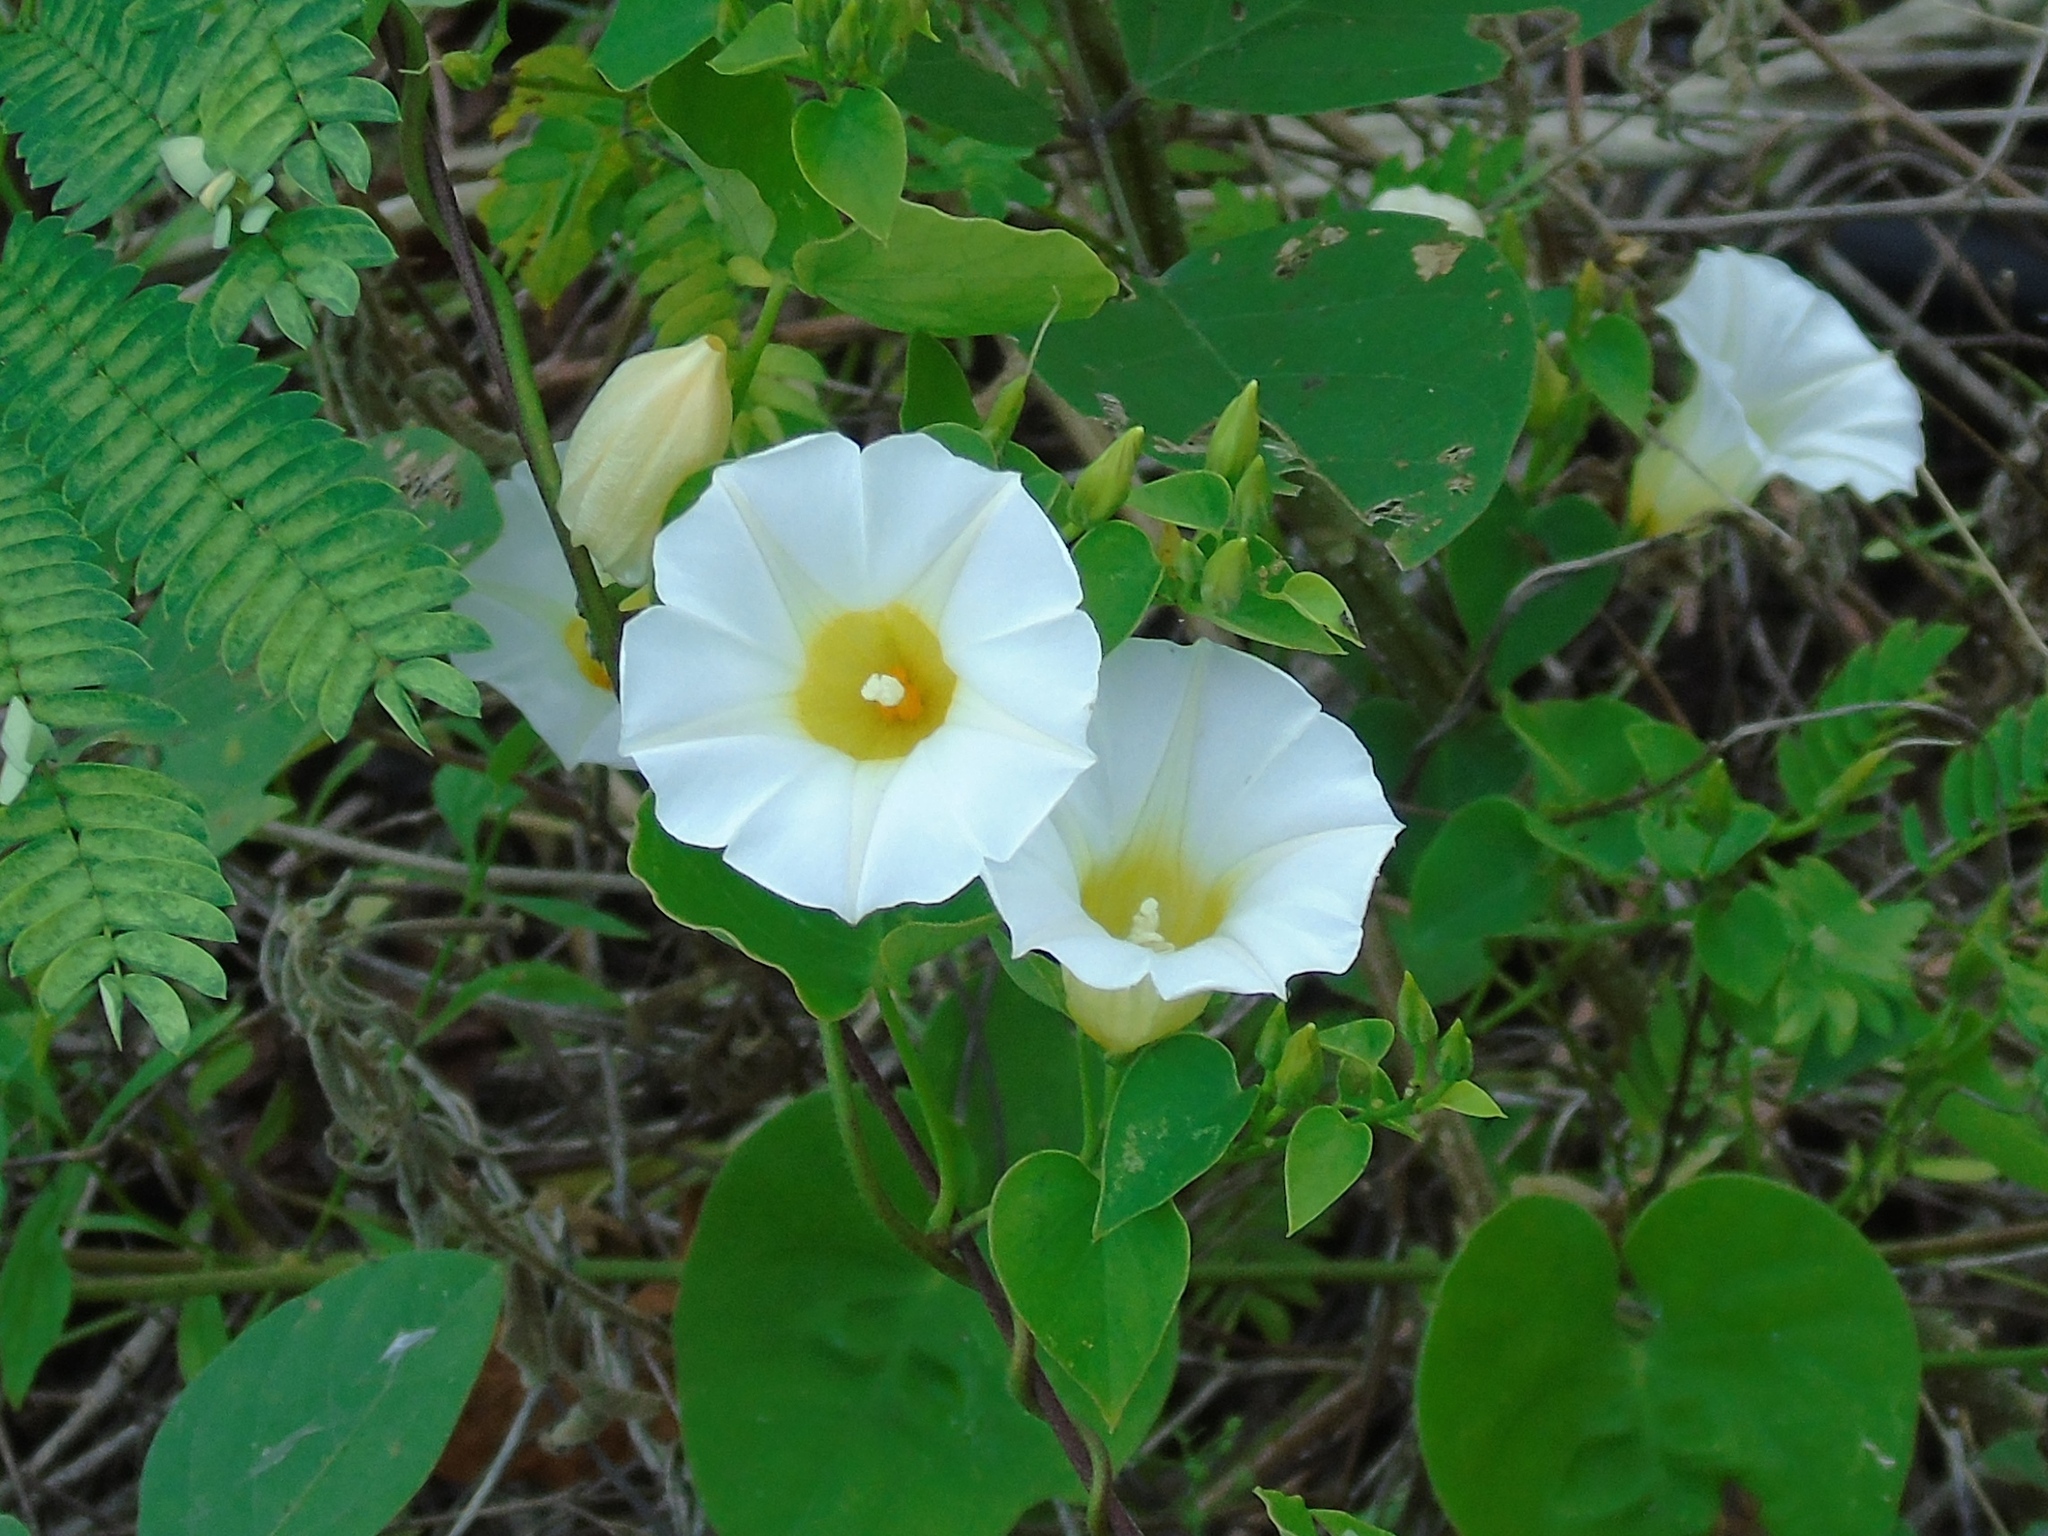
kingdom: Plantae
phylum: Tracheophyta
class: Magnoliopsida
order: Solanales
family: Convolvulaceae
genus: Ipomoea
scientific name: Ipomoea corymbosa
